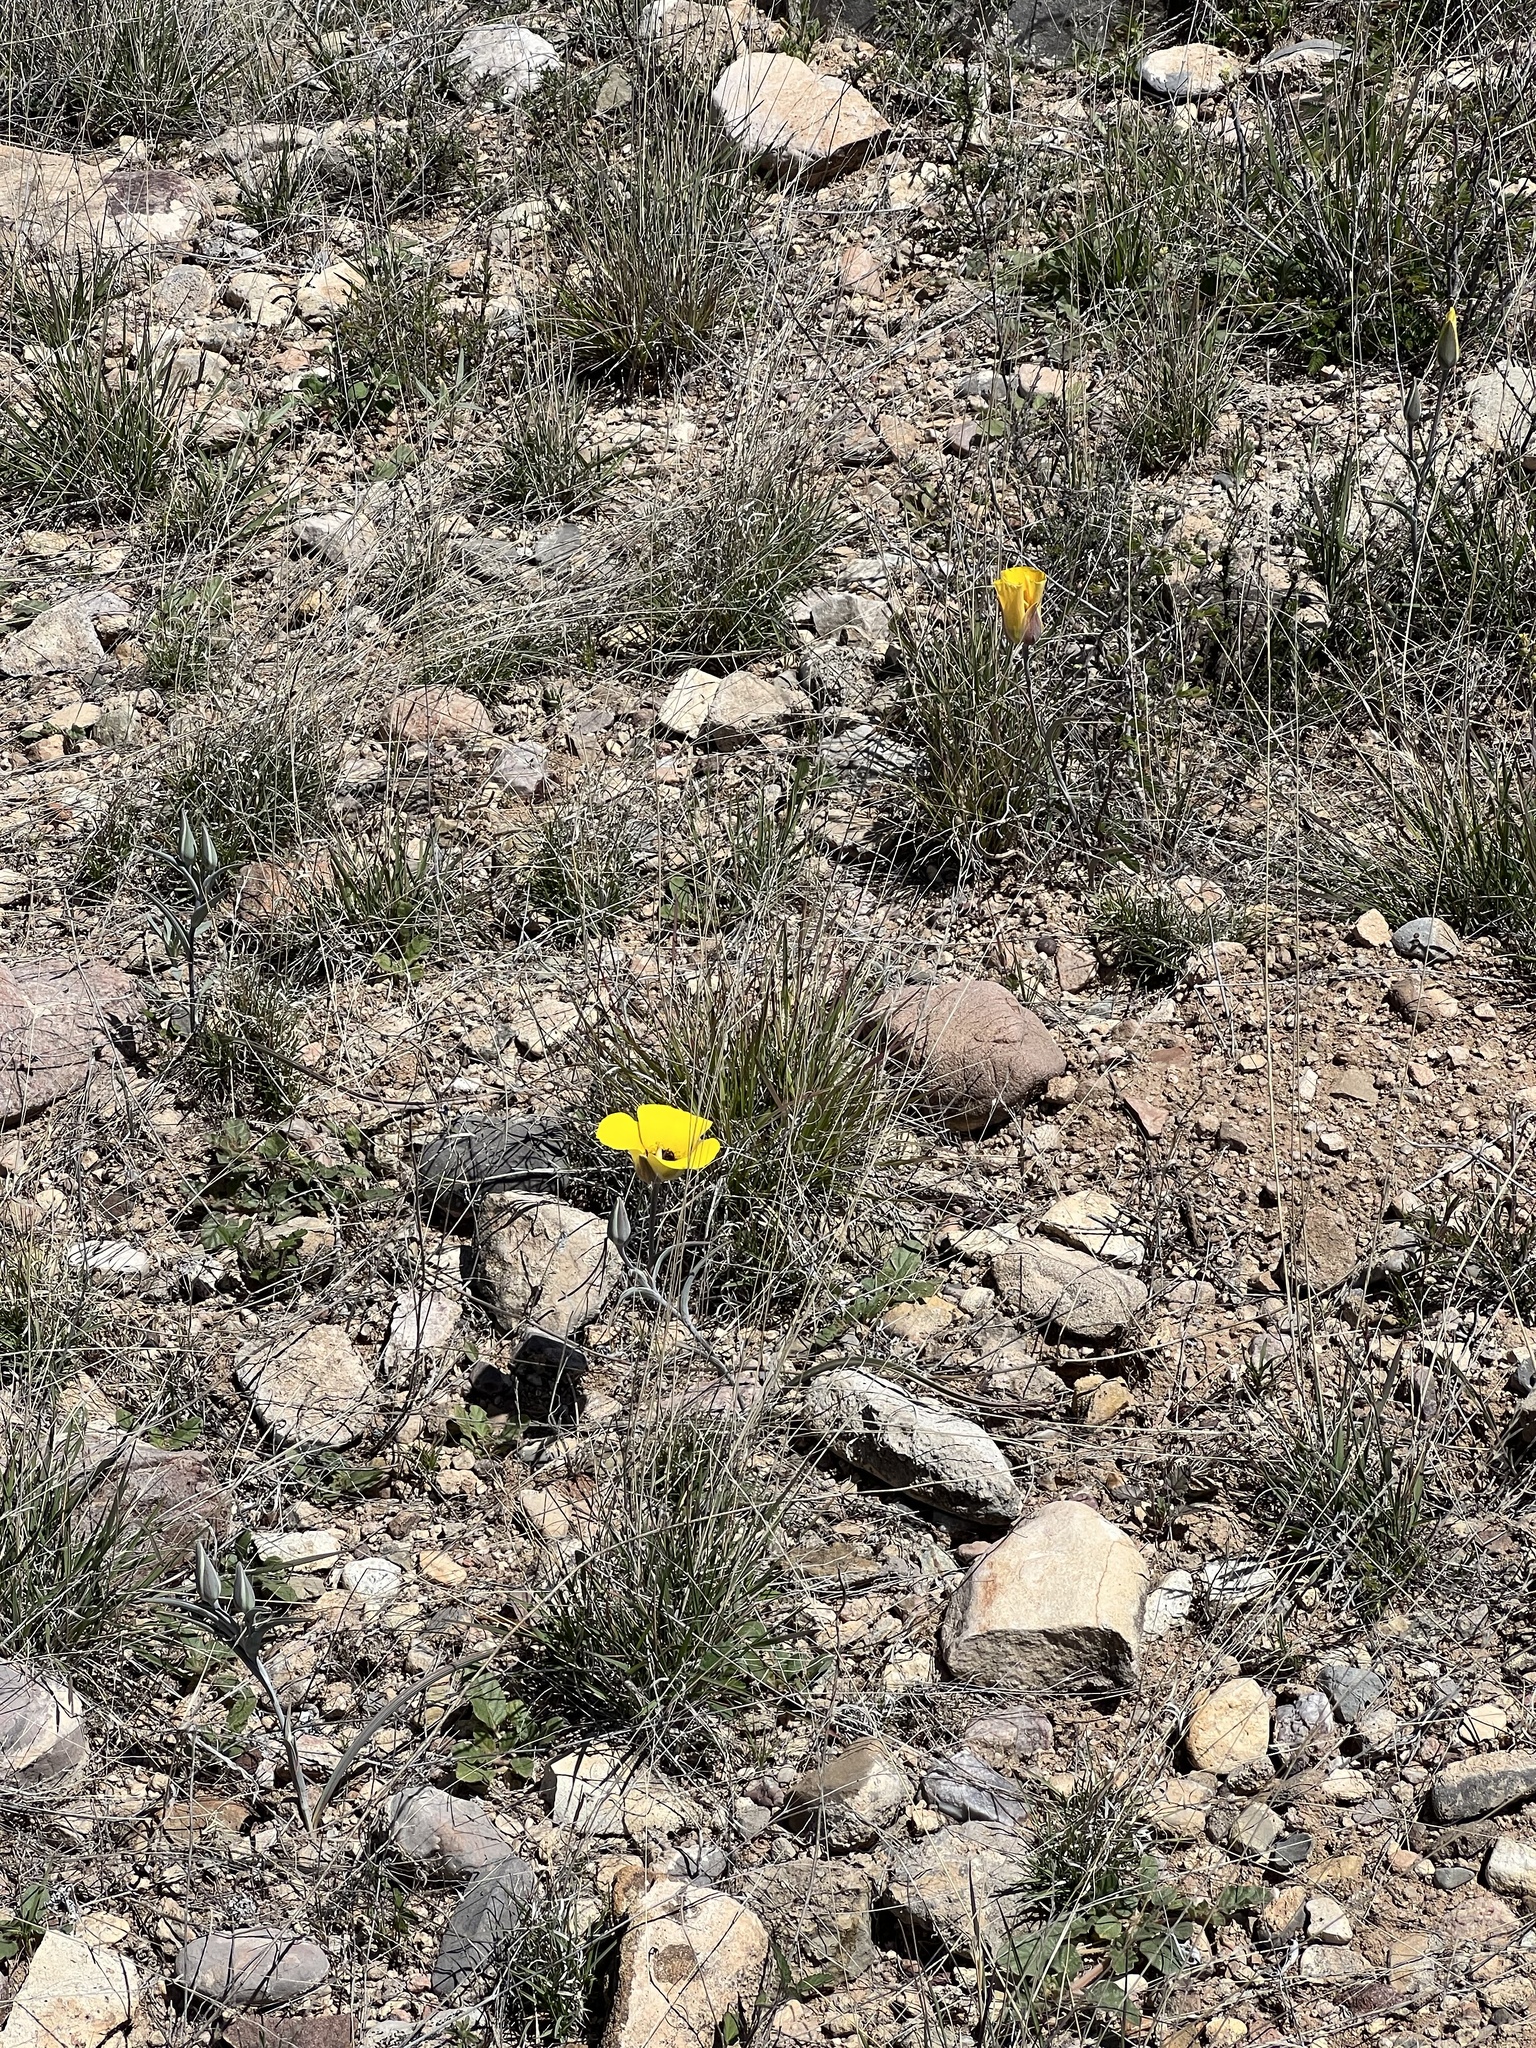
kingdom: Plantae
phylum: Tracheophyta
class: Liliopsida
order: Liliales
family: Liliaceae
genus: Calochortus
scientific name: Calochortus kennedyi
